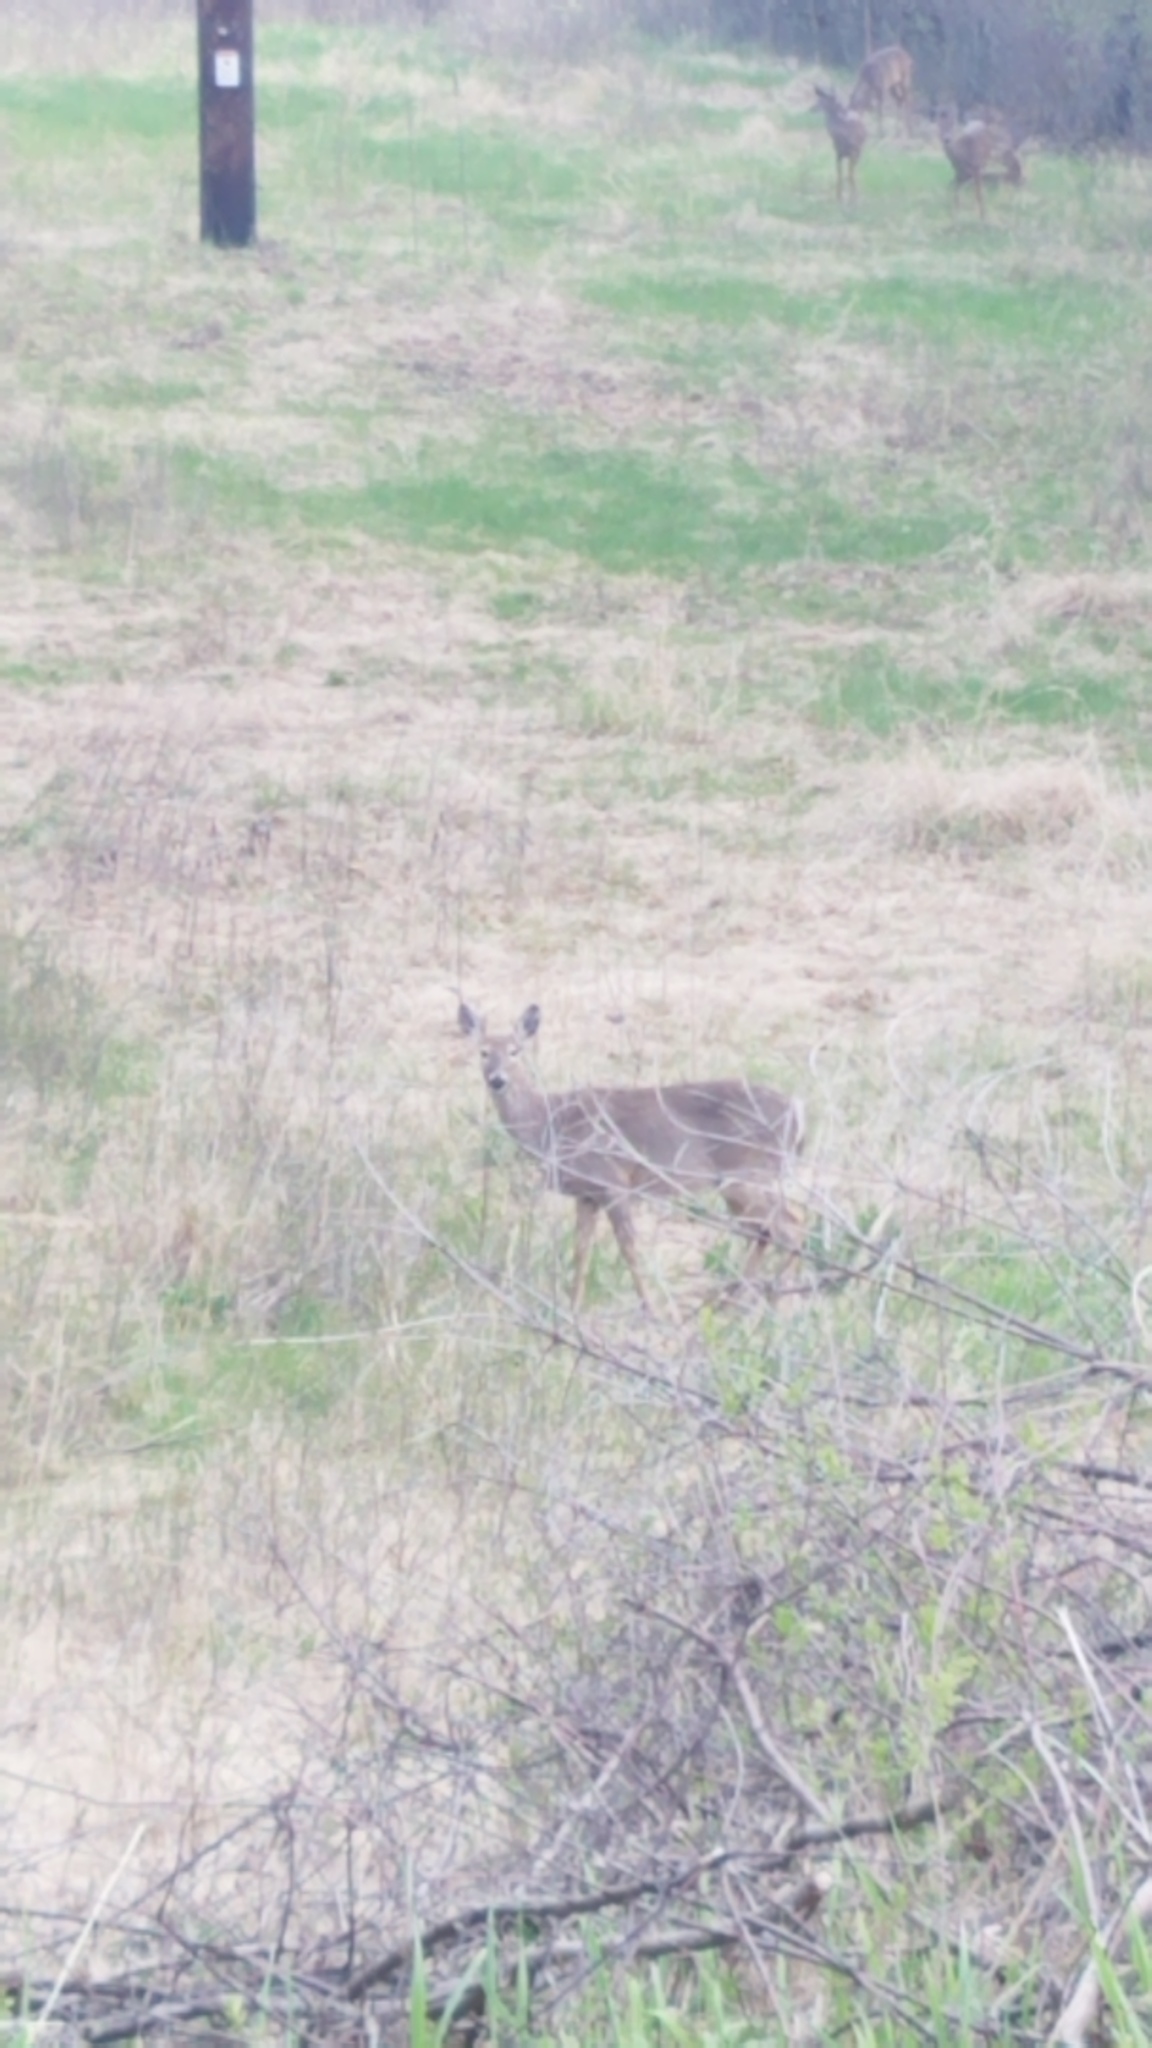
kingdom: Animalia
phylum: Chordata
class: Mammalia
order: Artiodactyla
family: Cervidae
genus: Odocoileus
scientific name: Odocoileus virginianus
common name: White-tailed deer
